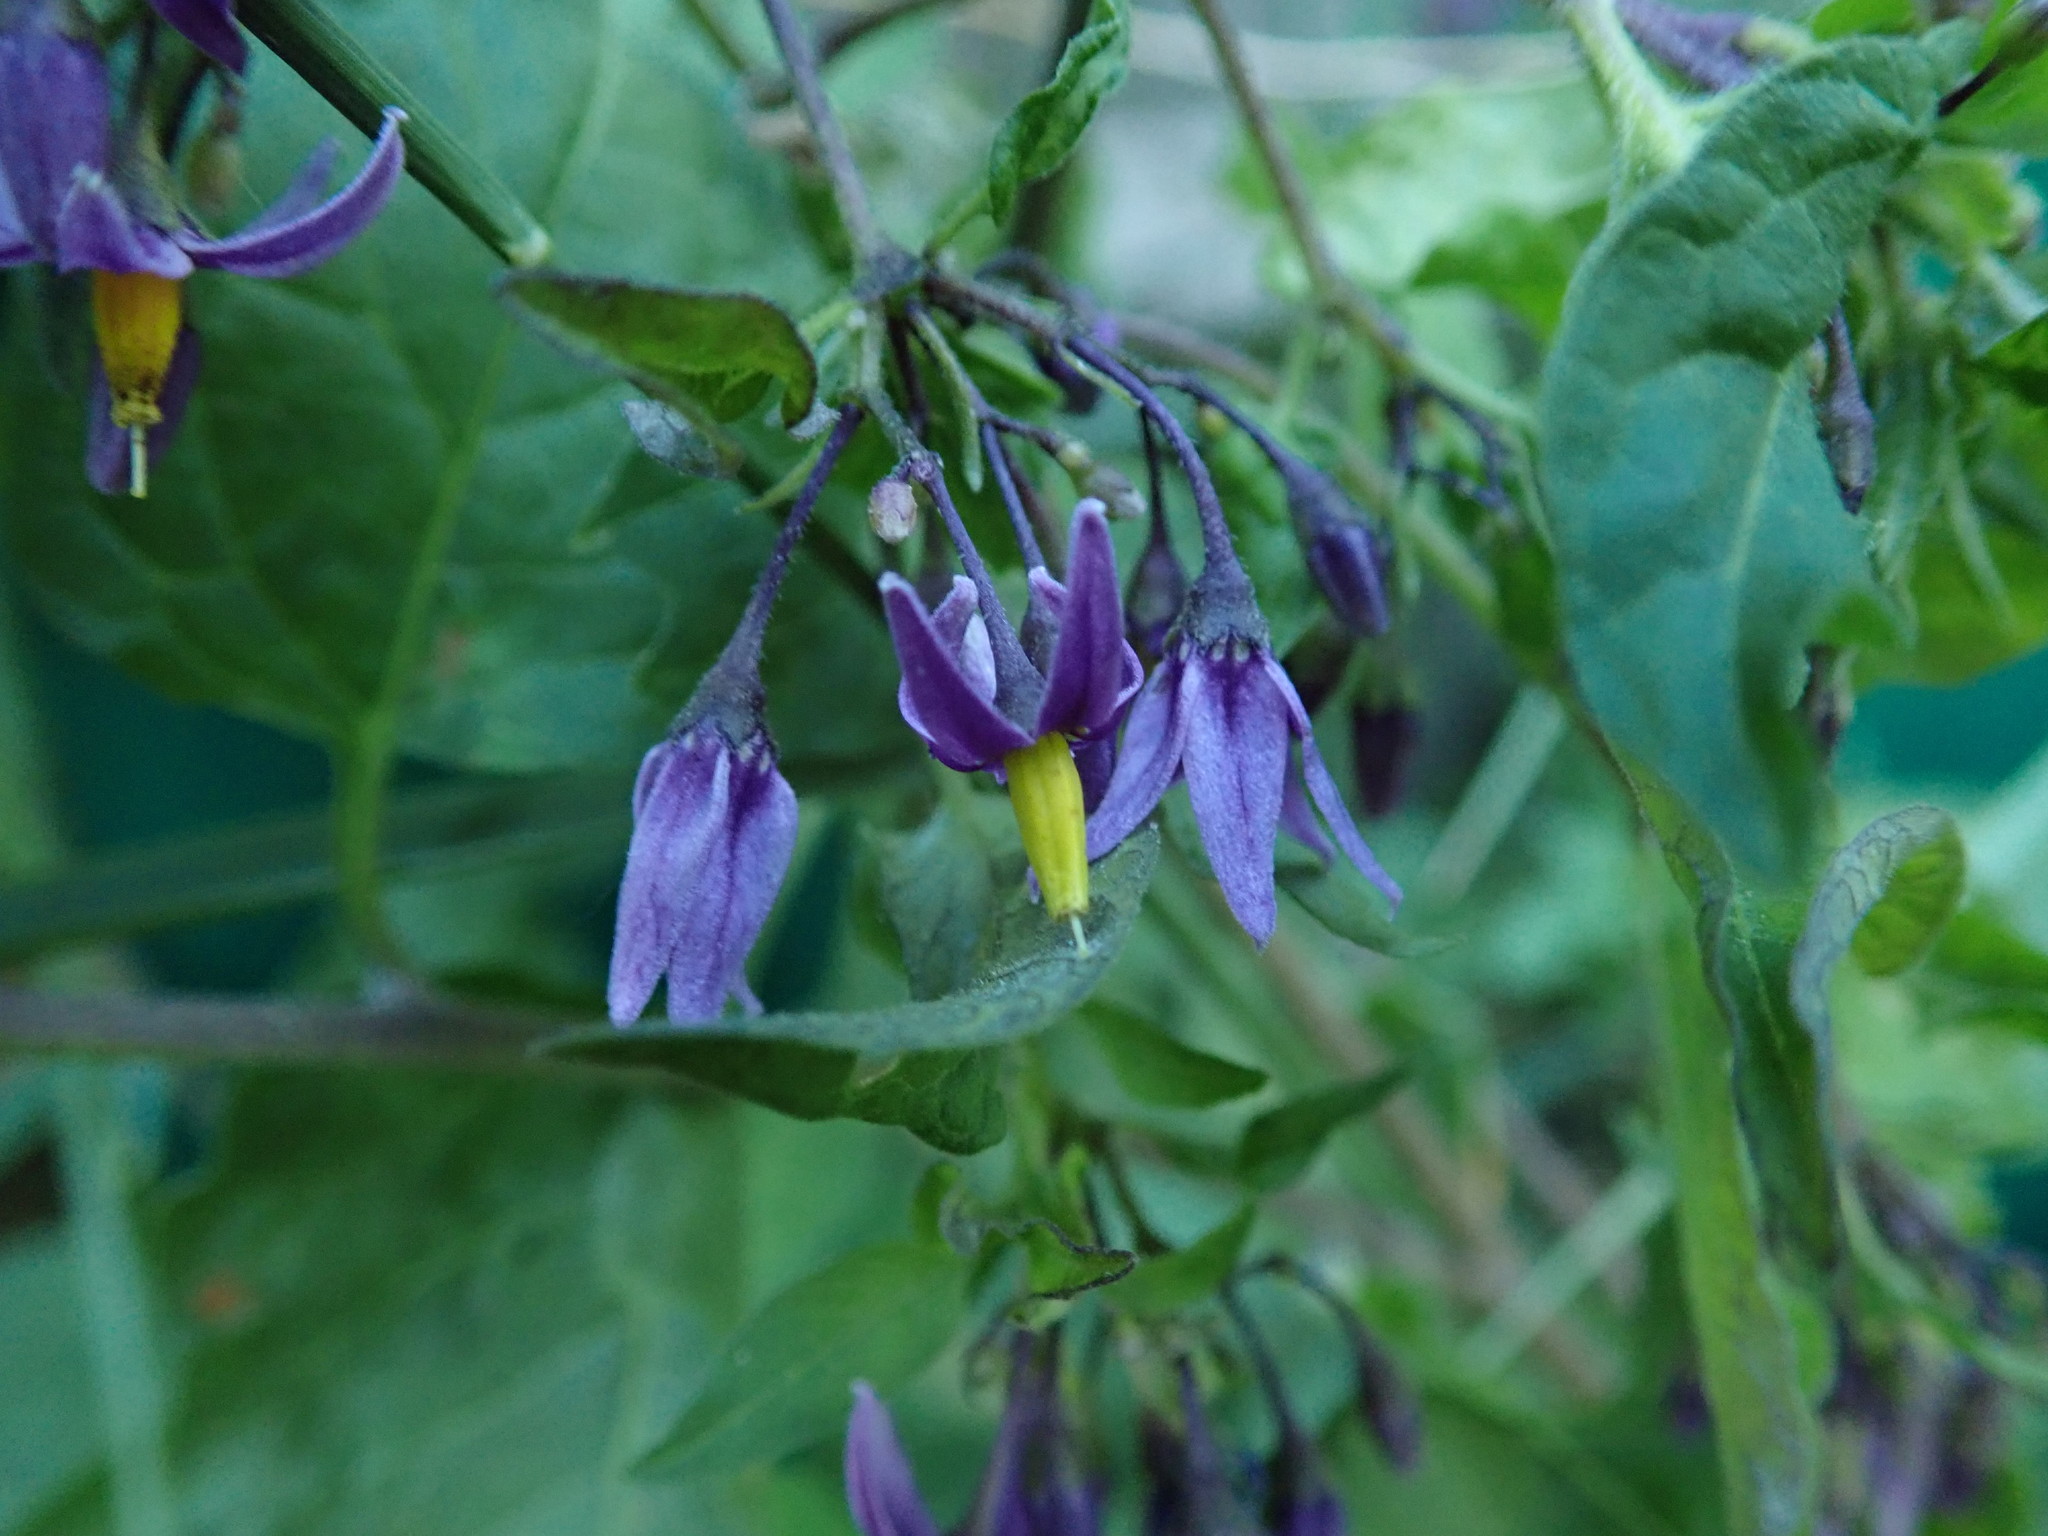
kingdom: Plantae
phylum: Tracheophyta
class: Magnoliopsida
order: Solanales
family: Solanaceae
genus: Solanum
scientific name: Solanum dulcamara
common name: Climbing nightshade
